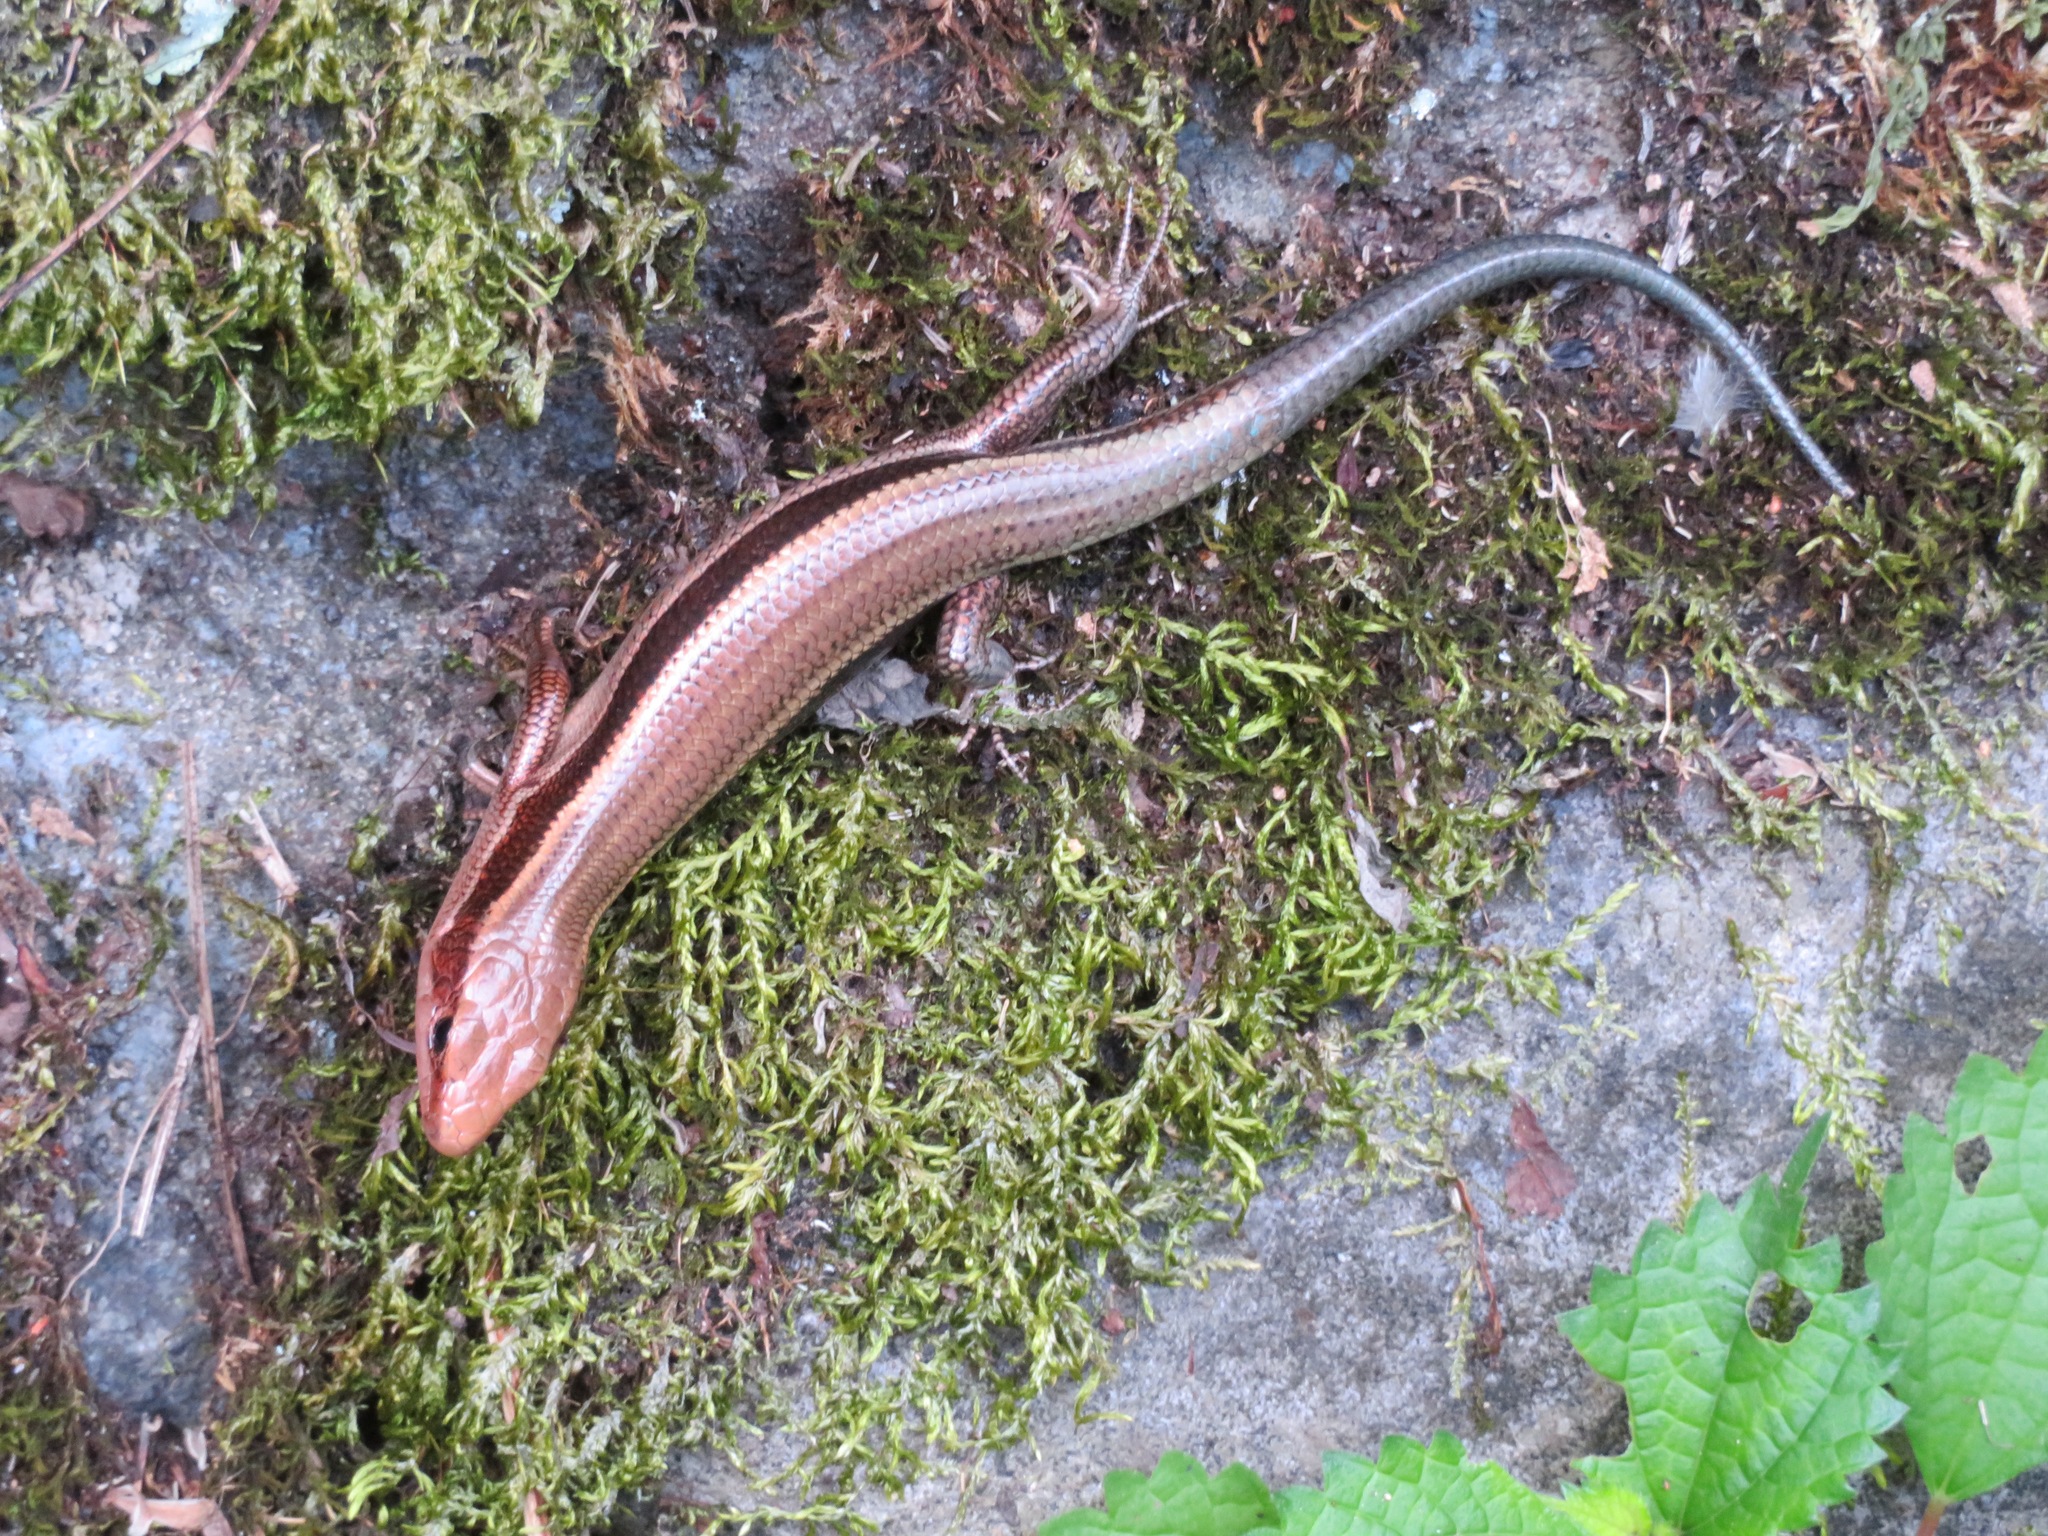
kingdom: Animalia
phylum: Chordata
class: Squamata
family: Scincidae
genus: Plestiodon
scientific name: Plestiodon finitimus
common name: Far eastern skink
